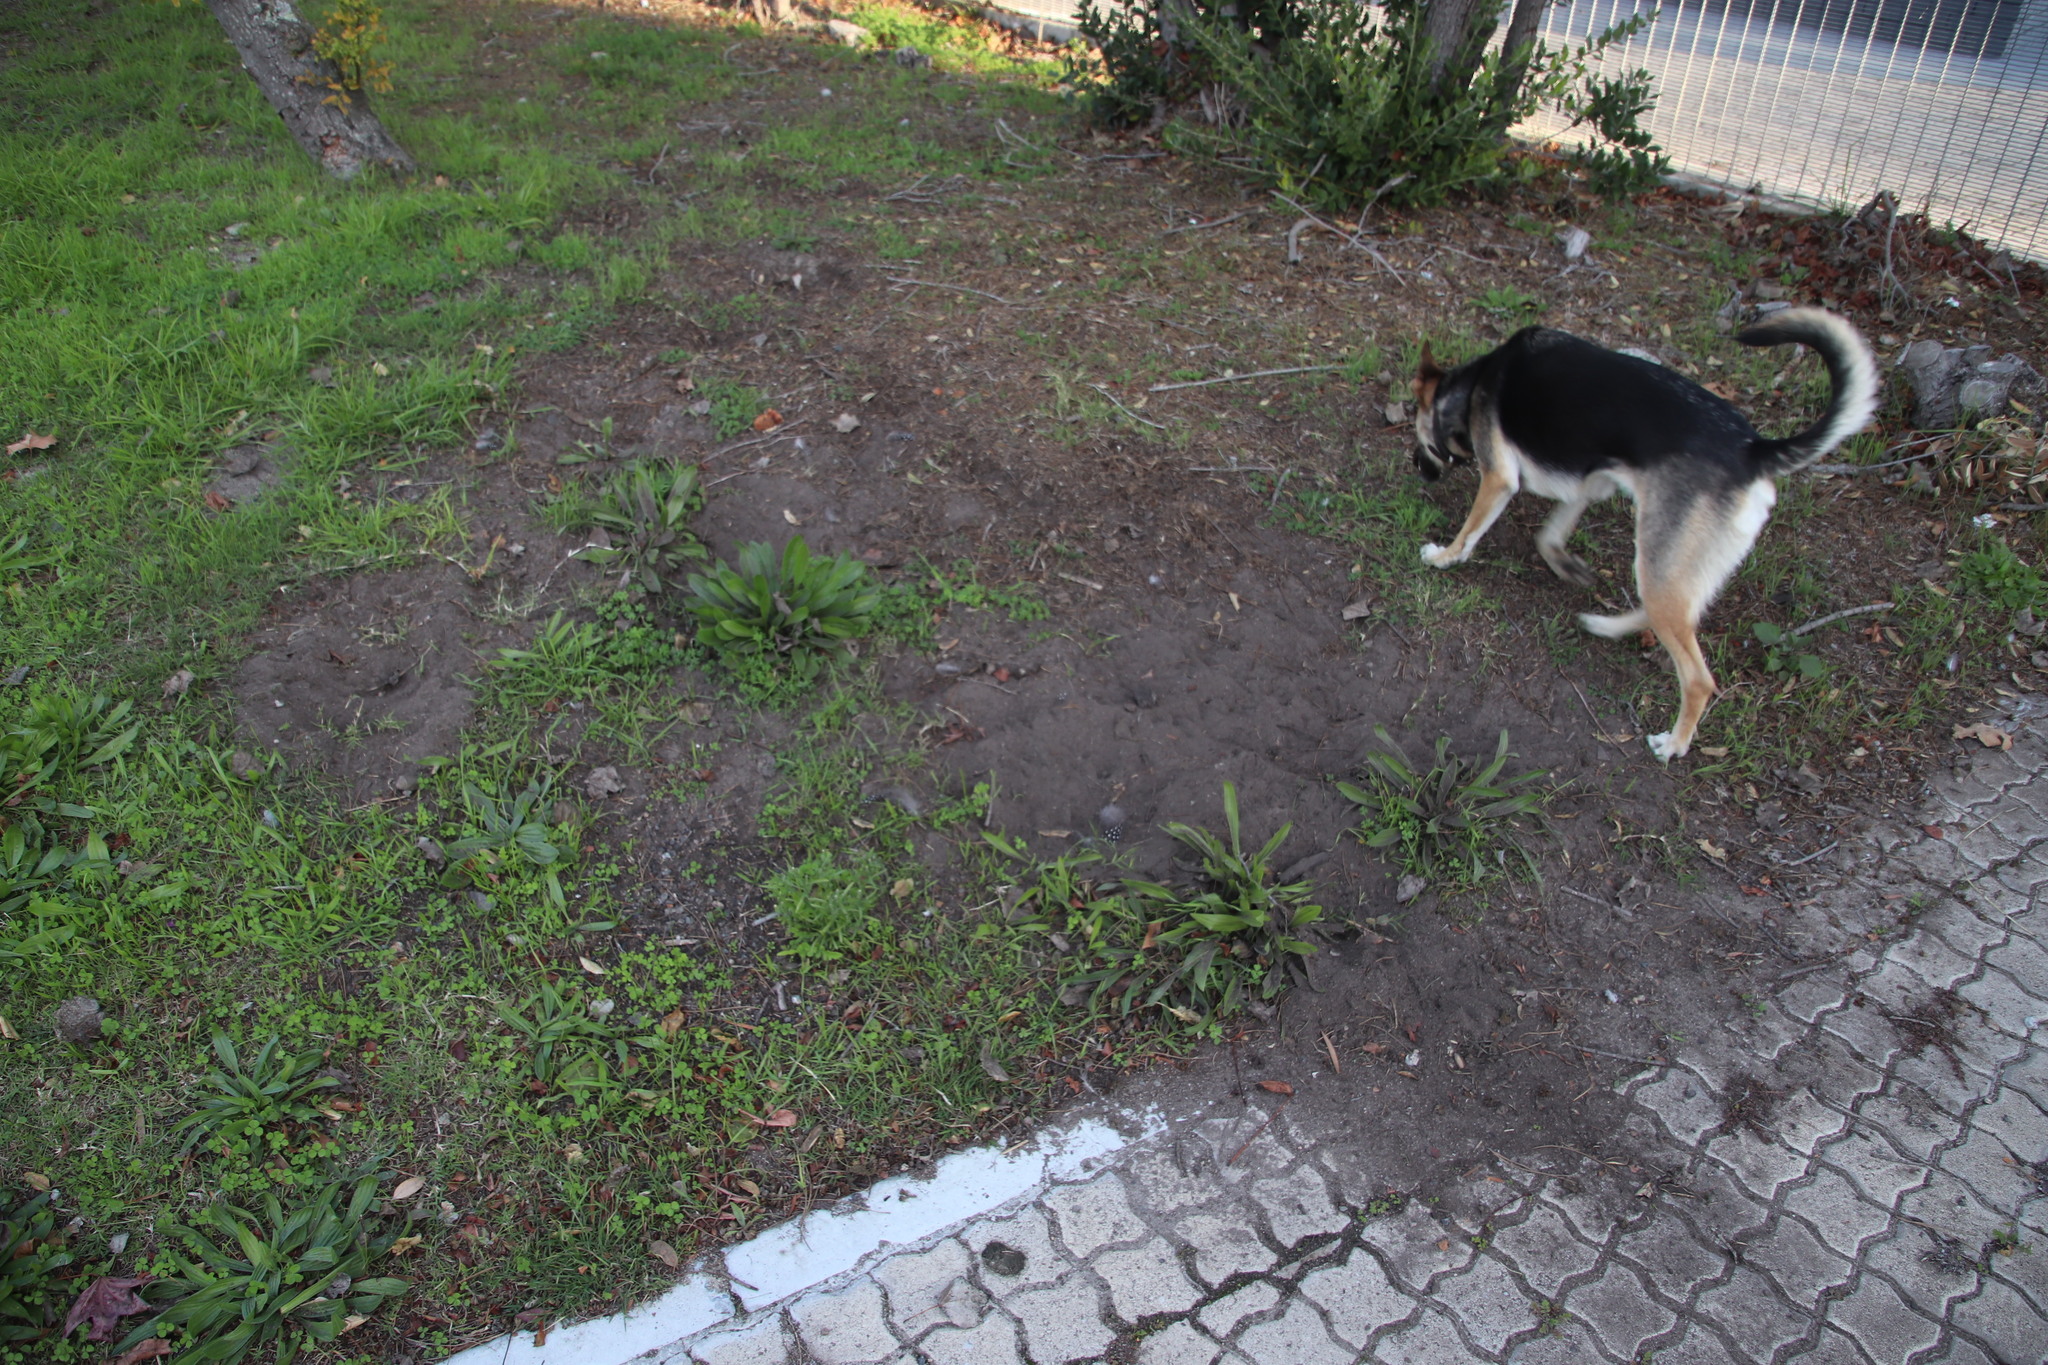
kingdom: Animalia
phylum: Chordata
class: Aves
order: Galliformes
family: Numididae
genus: Numida
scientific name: Numida meleagris
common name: Helmeted guineafowl
